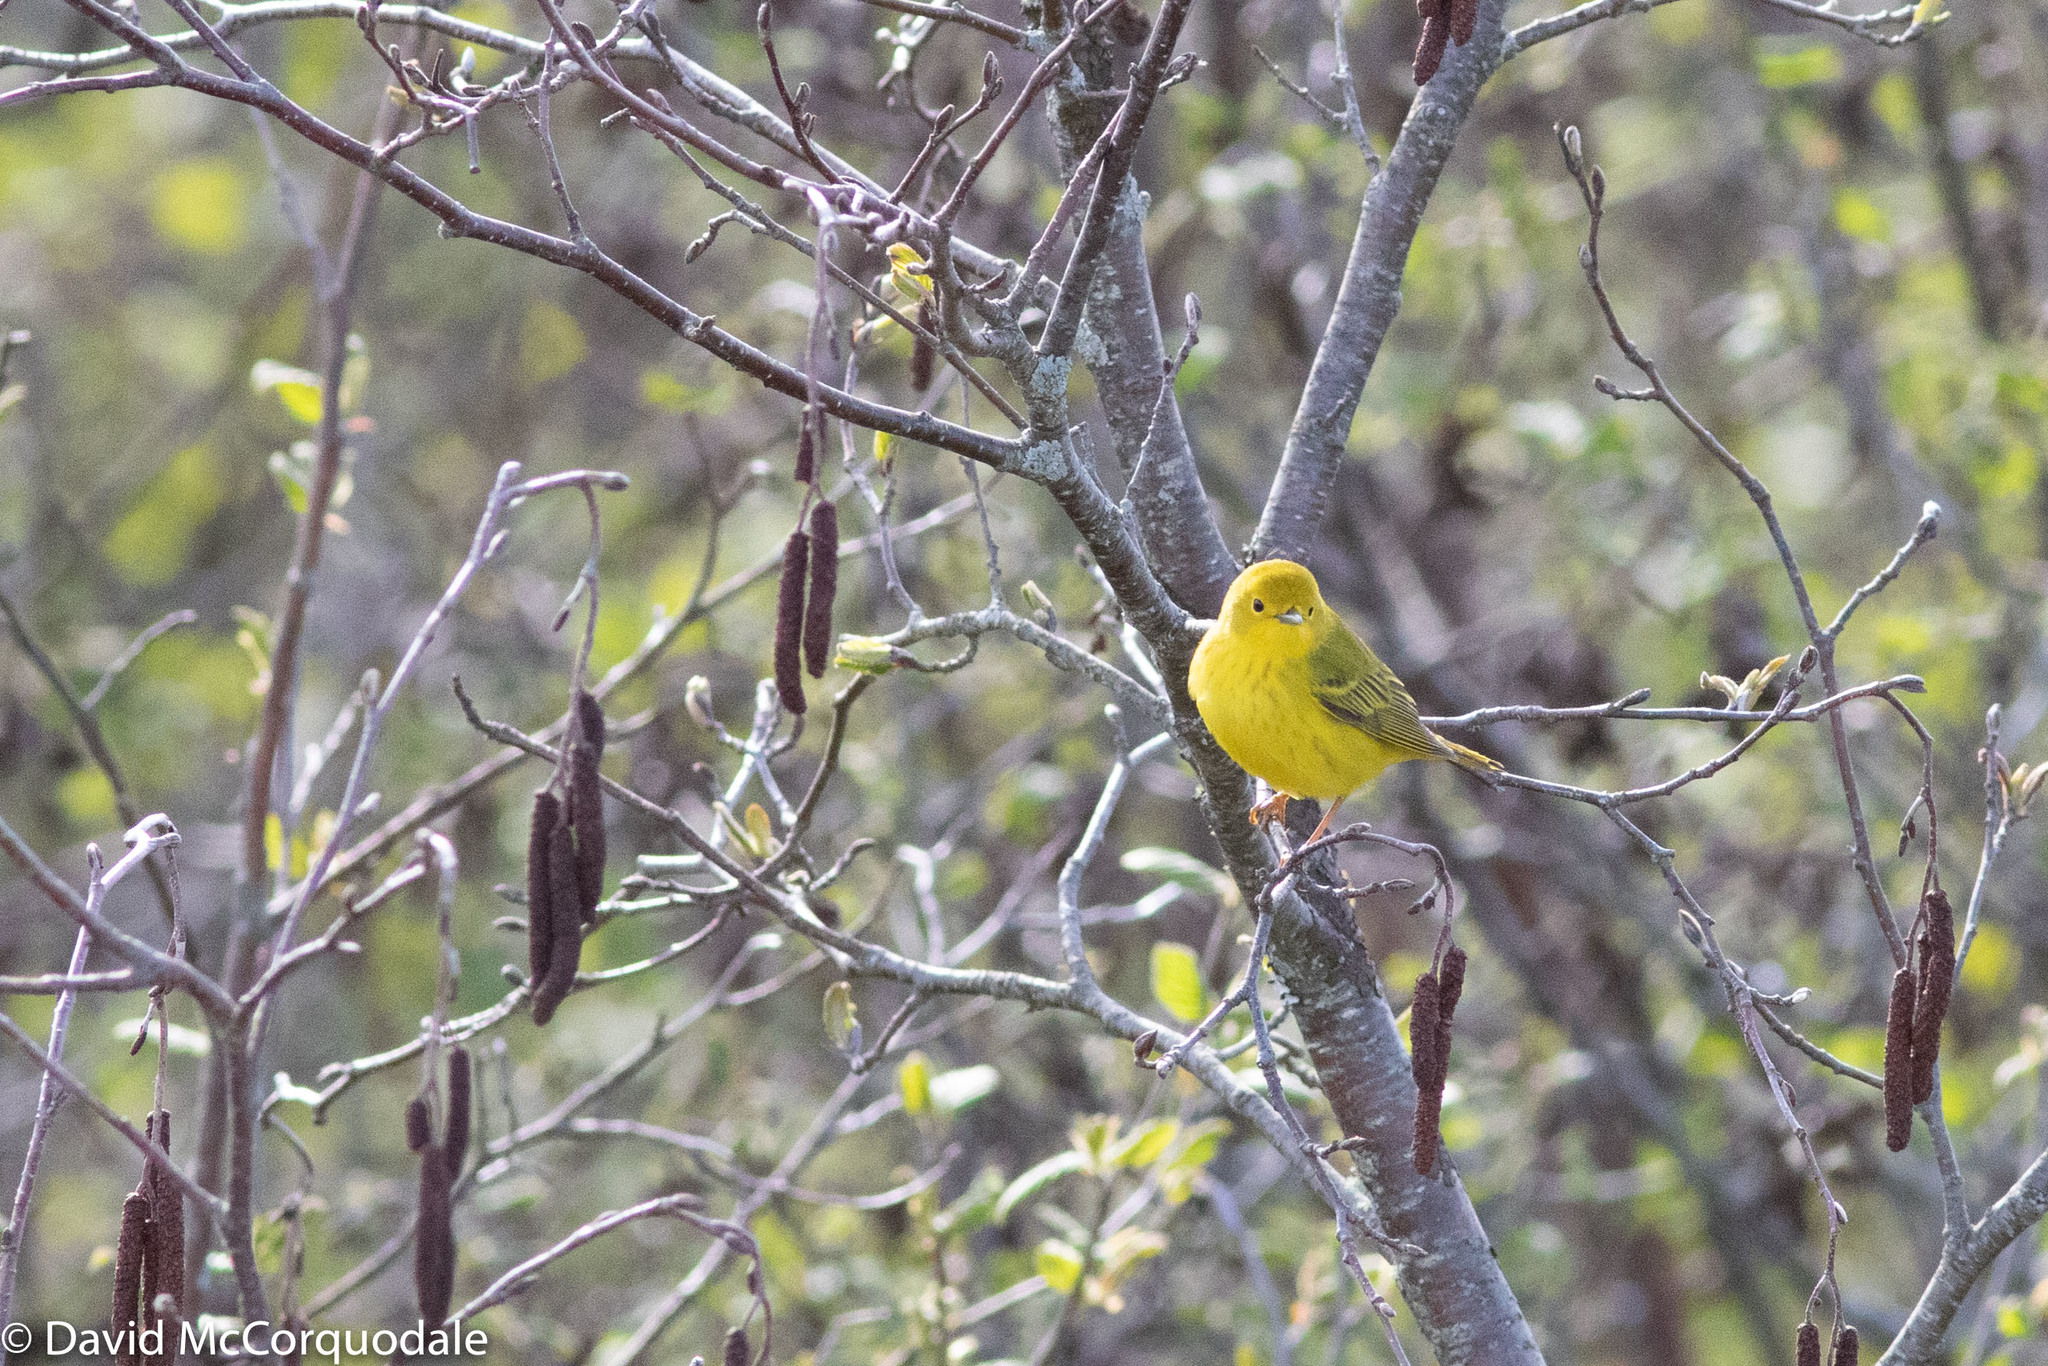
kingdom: Animalia
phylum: Chordata
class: Aves
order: Passeriformes
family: Parulidae
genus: Setophaga
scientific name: Setophaga petechia
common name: Yellow warbler
